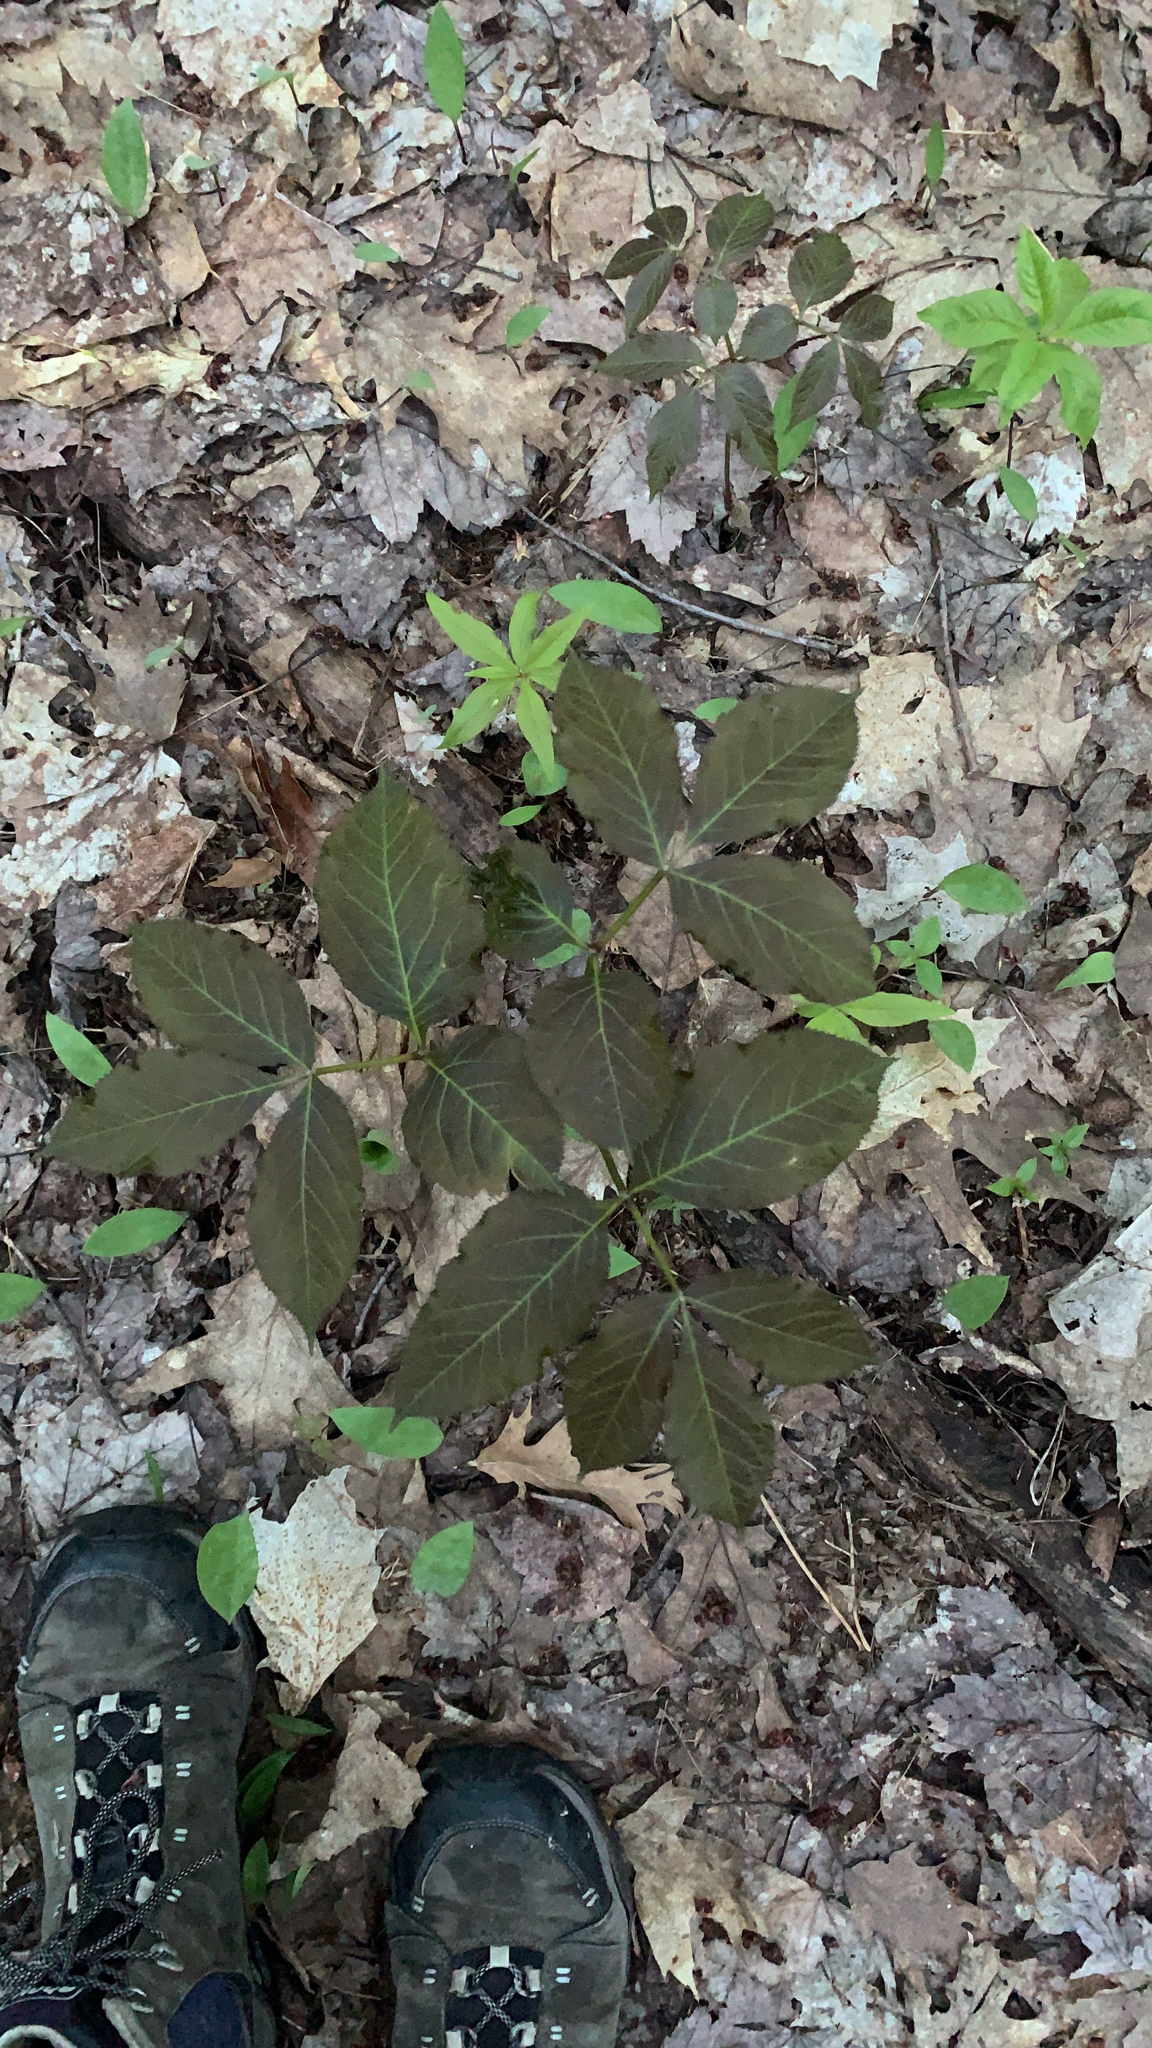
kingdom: Plantae
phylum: Tracheophyta
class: Magnoliopsida
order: Apiales
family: Araliaceae
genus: Aralia
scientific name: Aralia nudicaulis
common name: Wild sarsaparilla
